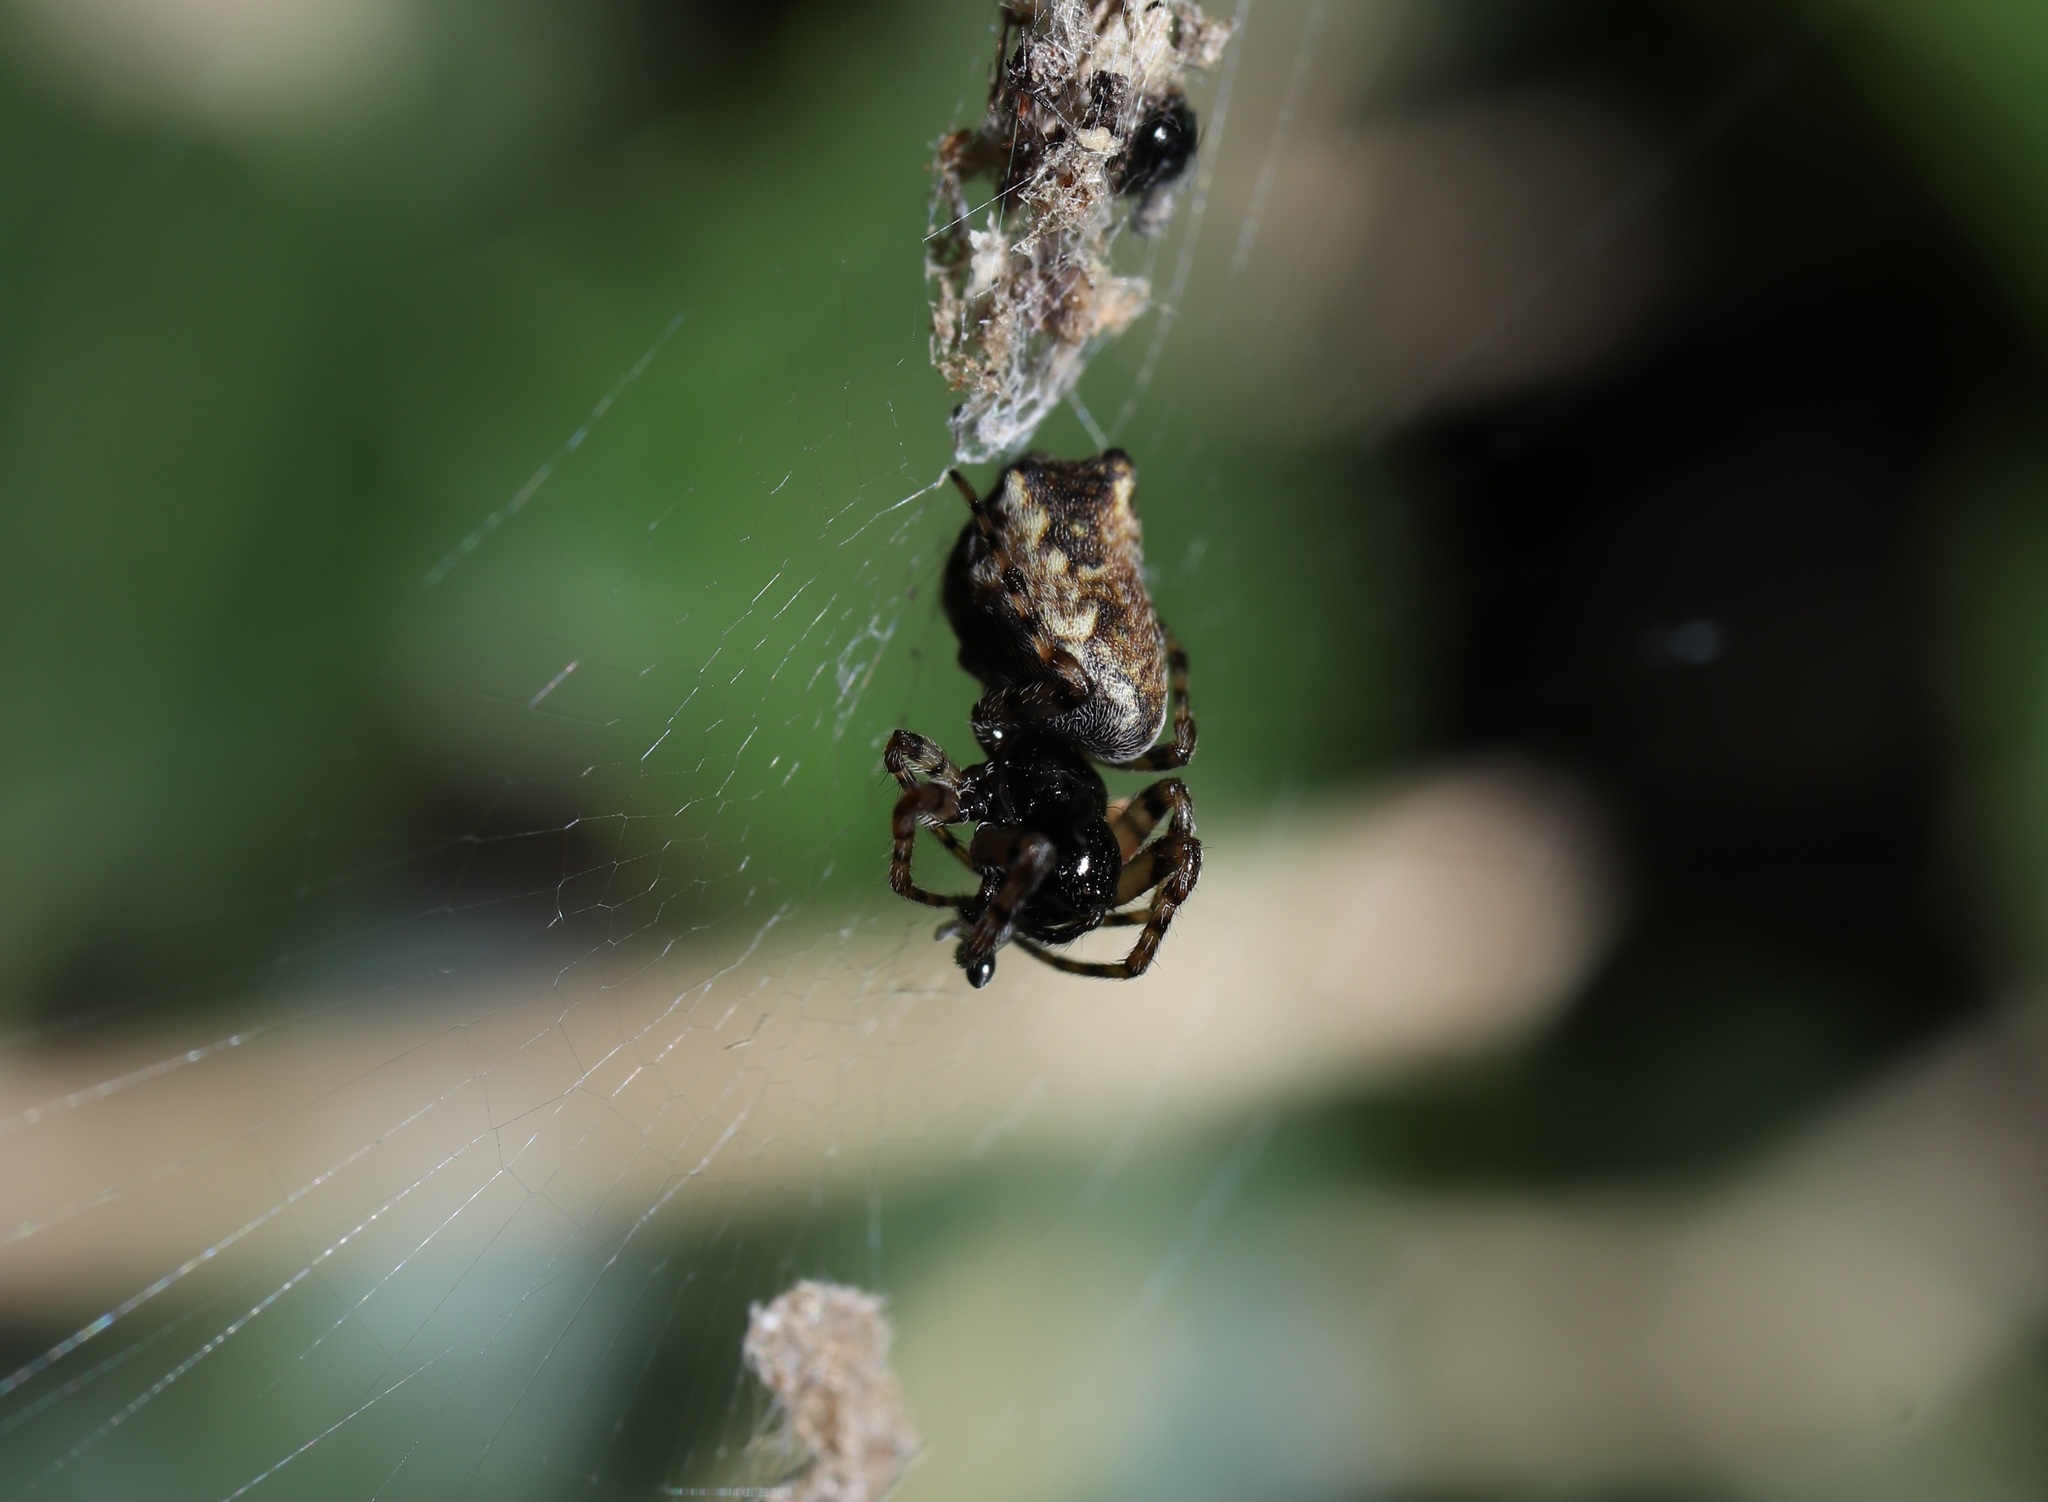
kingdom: Animalia
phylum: Arthropoda
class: Arachnida
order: Araneae
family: Araneidae
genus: Cyclosa
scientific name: Cyclosa sedeculata
